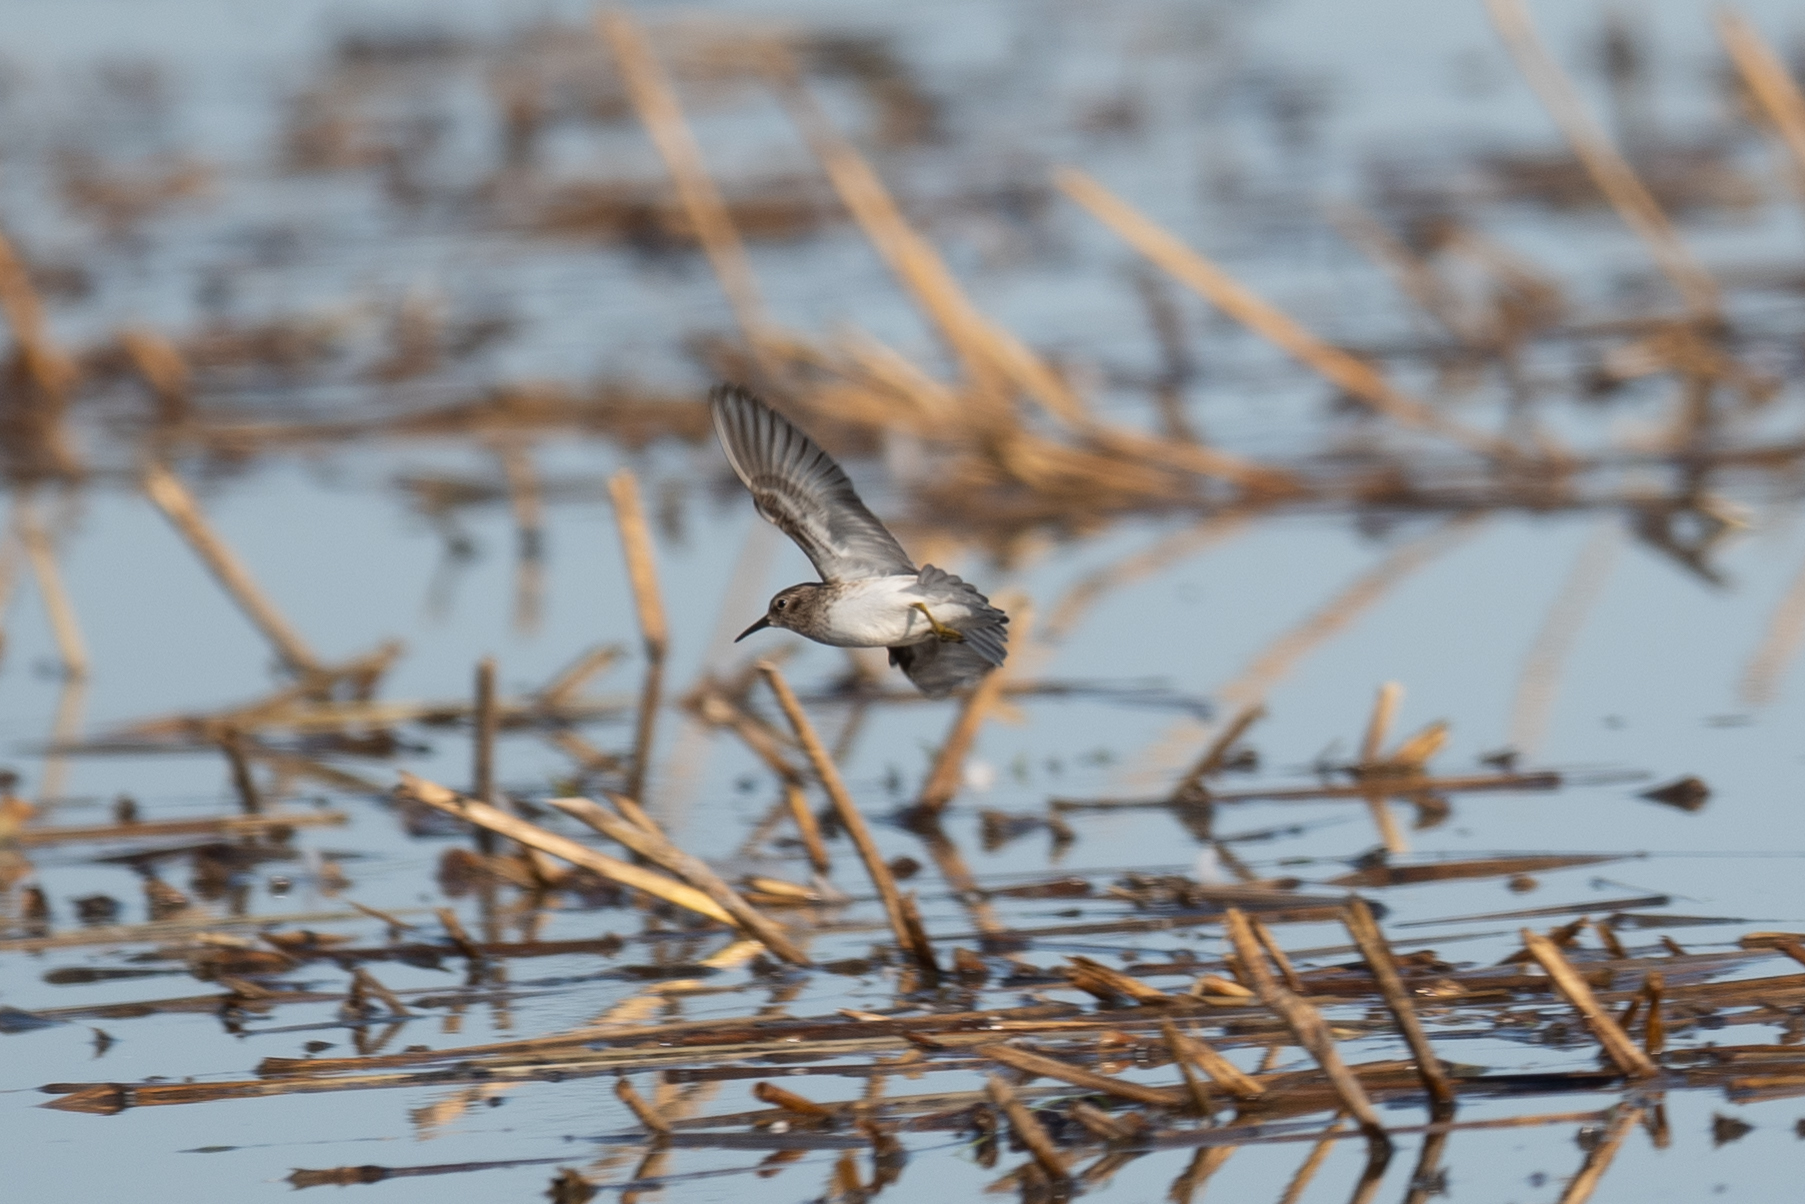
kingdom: Animalia
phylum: Chordata
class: Aves
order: Charadriiformes
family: Scolopacidae
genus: Calidris
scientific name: Calidris minutilla
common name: Least sandpiper
